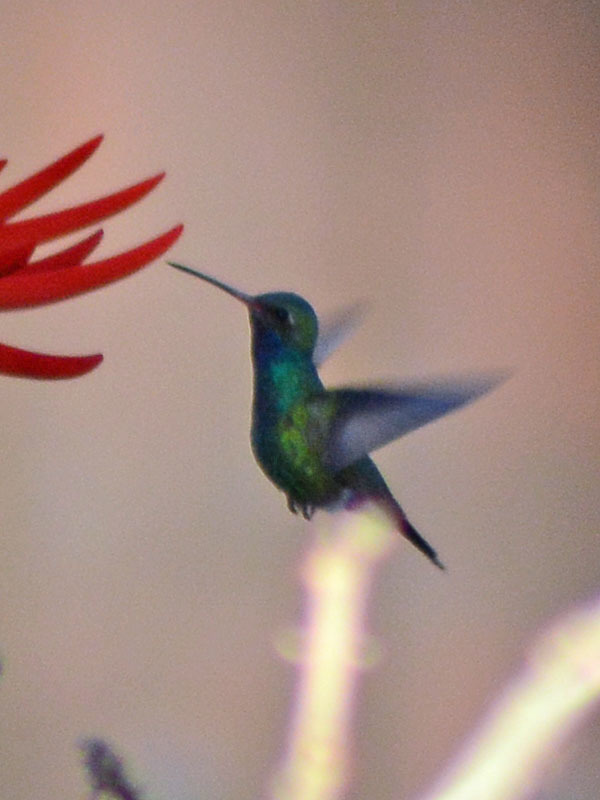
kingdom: Animalia
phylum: Chordata
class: Aves
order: Apodiformes
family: Trochilidae
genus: Cynanthus
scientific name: Cynanthus latirostris
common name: Broad-billed hummingbird
